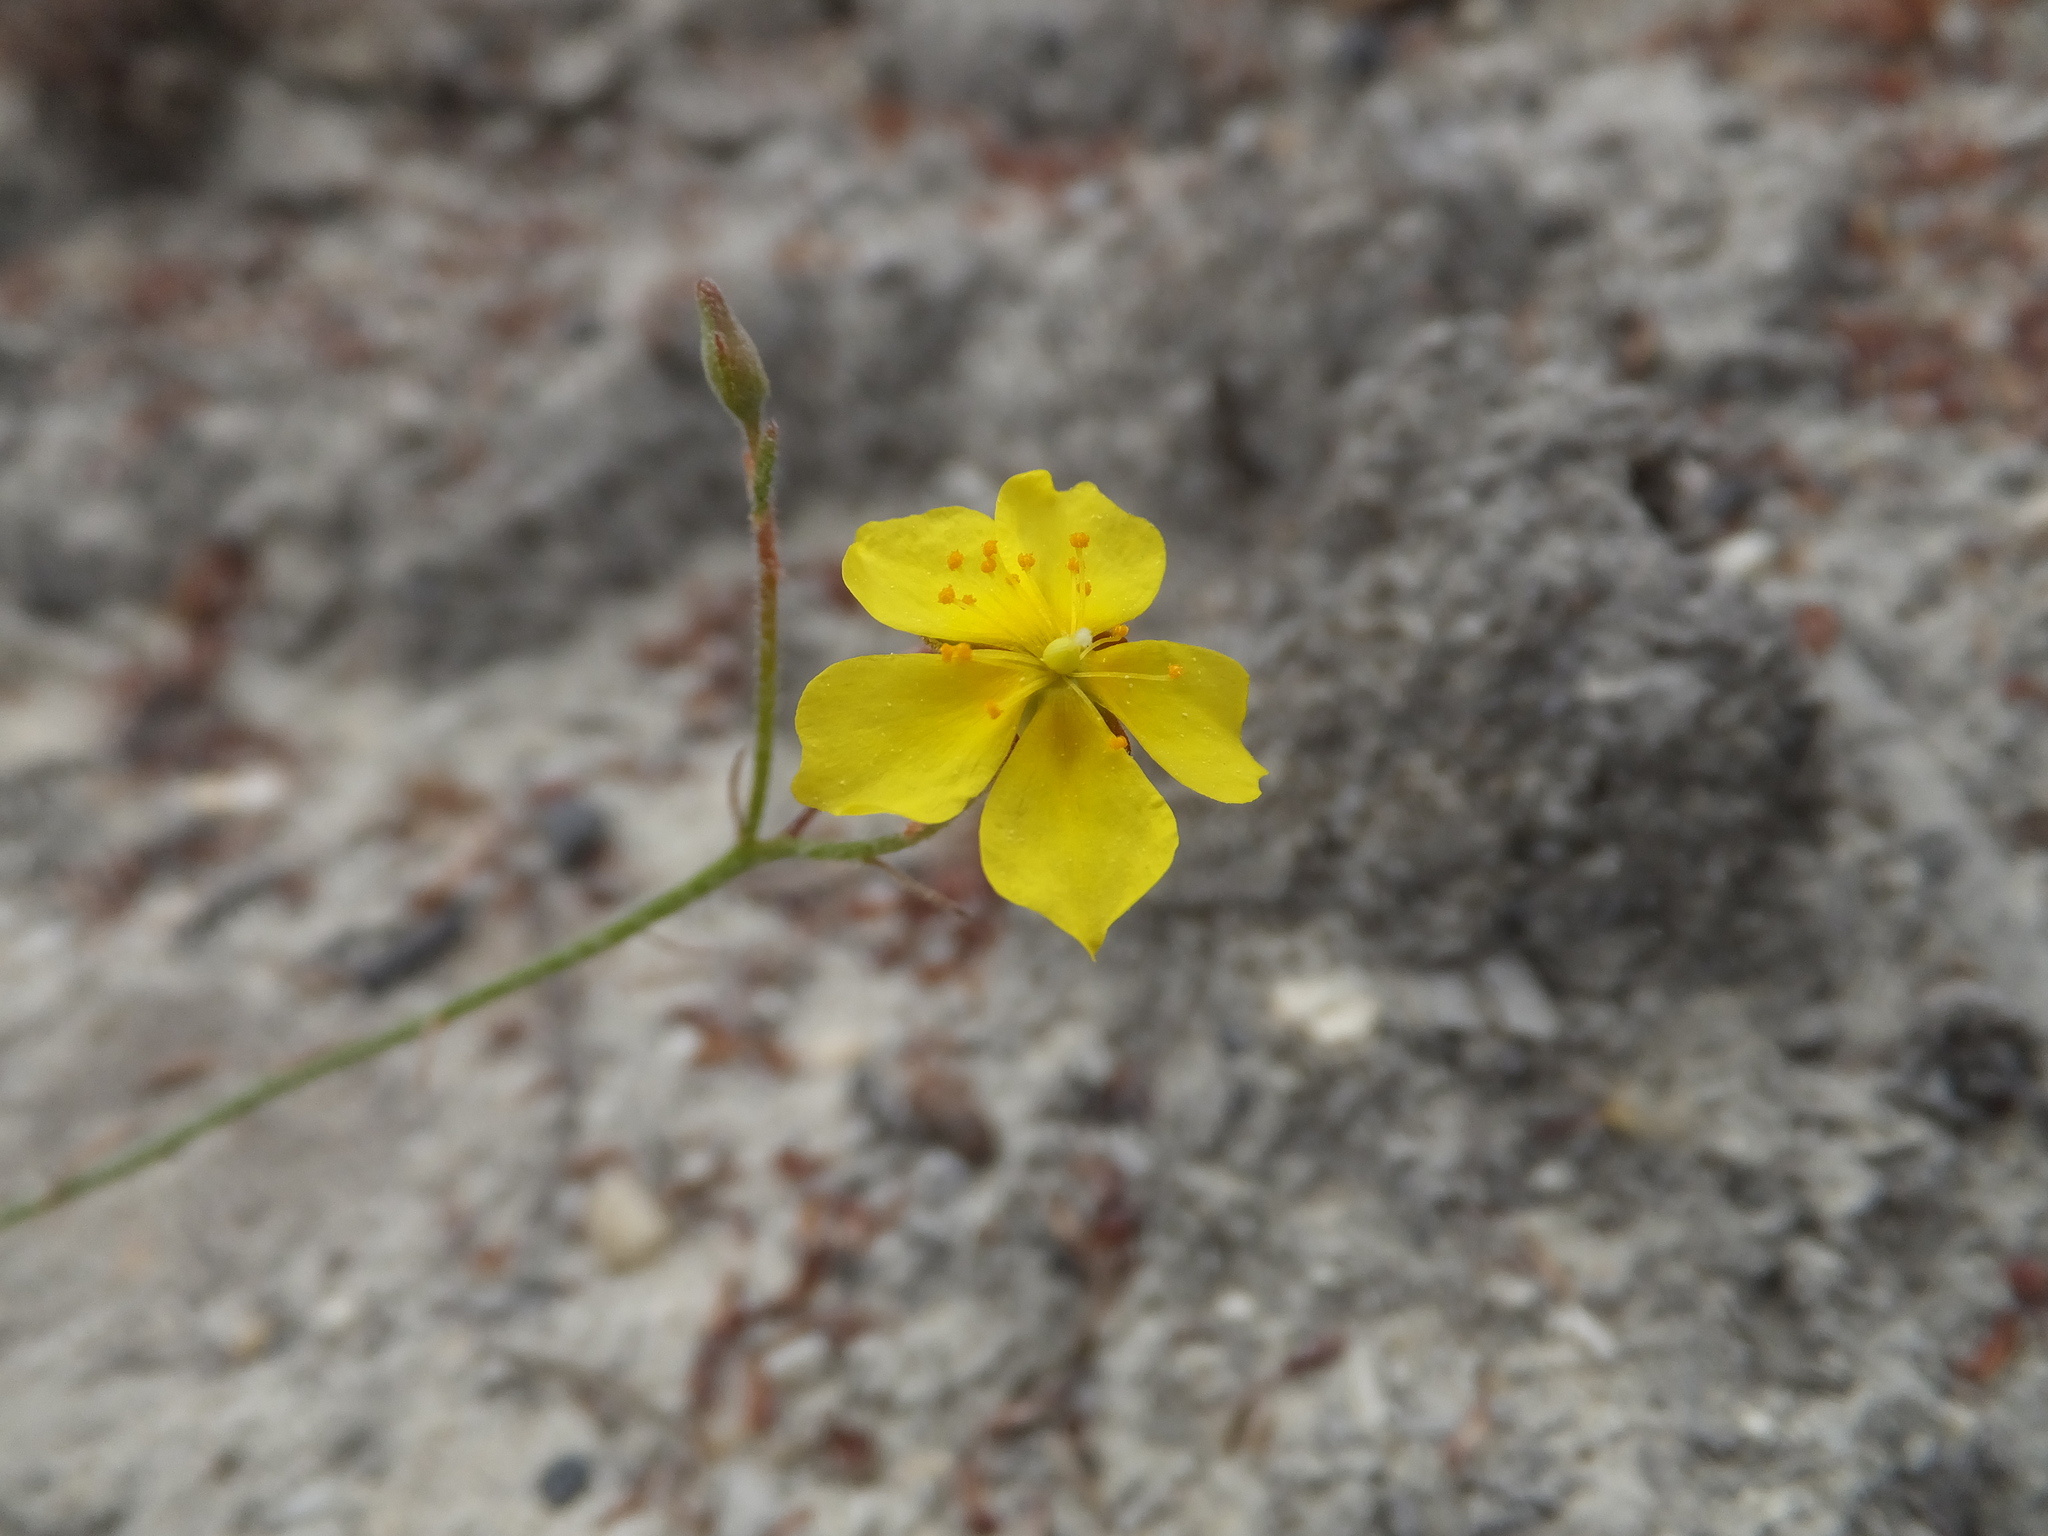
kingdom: Plantae
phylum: Tracheophyta
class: Magnoliopsida
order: Malvales
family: Cistaceae
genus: Crocanthemum
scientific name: Crocanthemum scoparium
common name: Broom-rose
